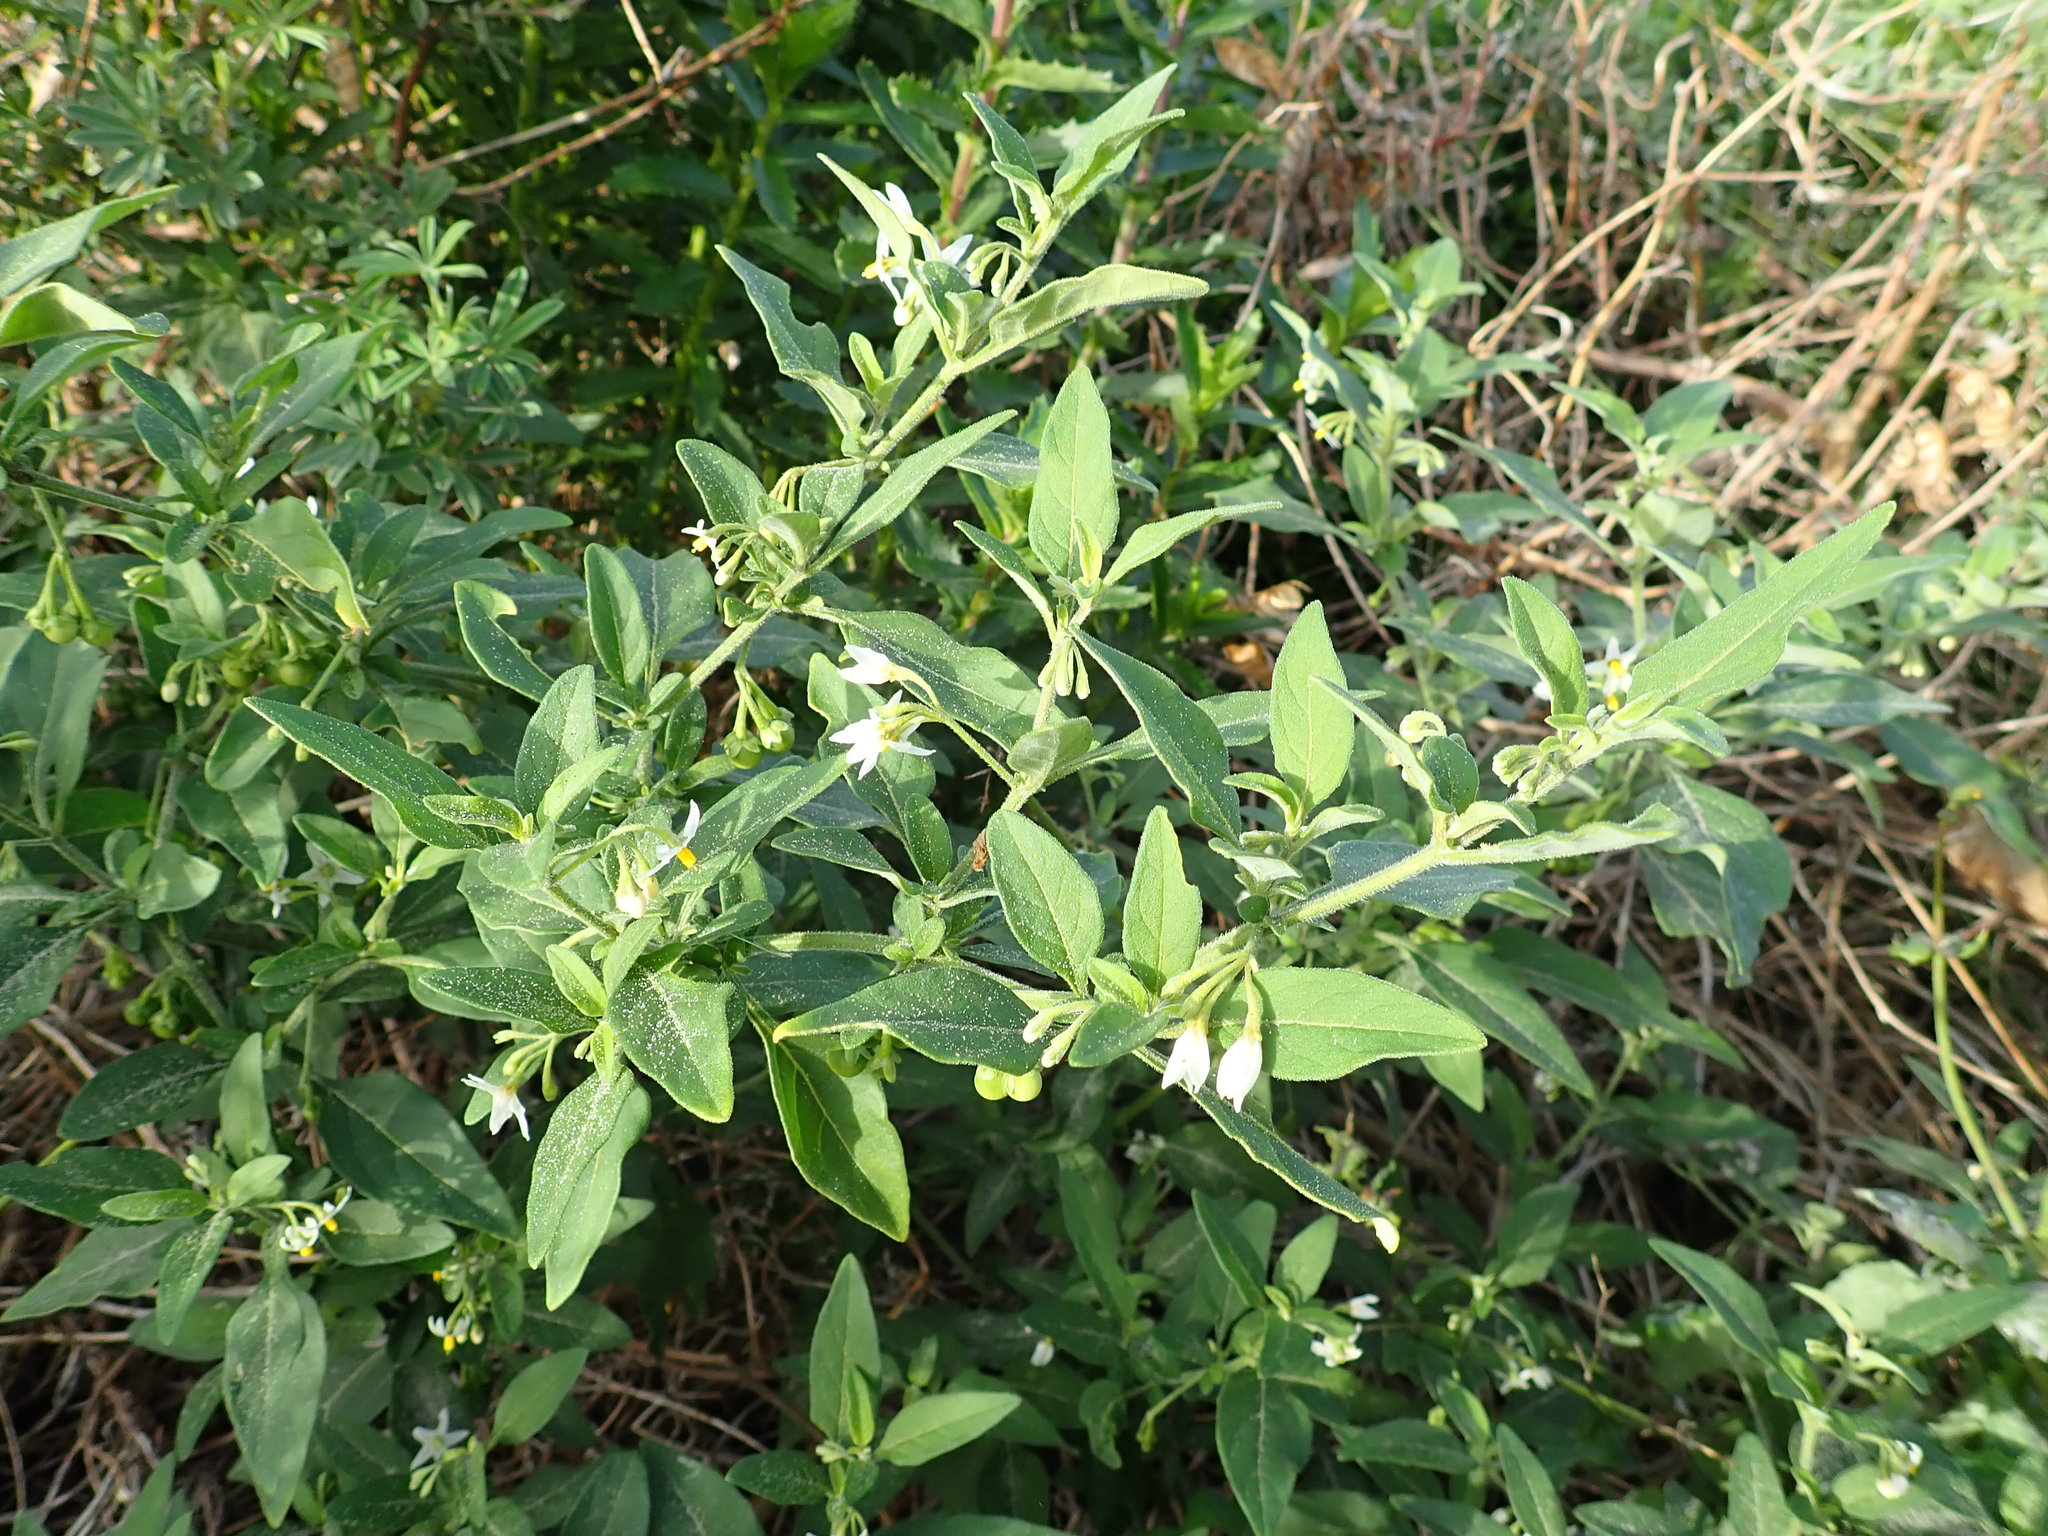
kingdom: Plantae
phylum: Tracheophyta
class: Magnoliopsida
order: Solanales
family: Solanaceae
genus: Solanum
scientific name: Solanum chenopodioides
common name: Tall nightshade
